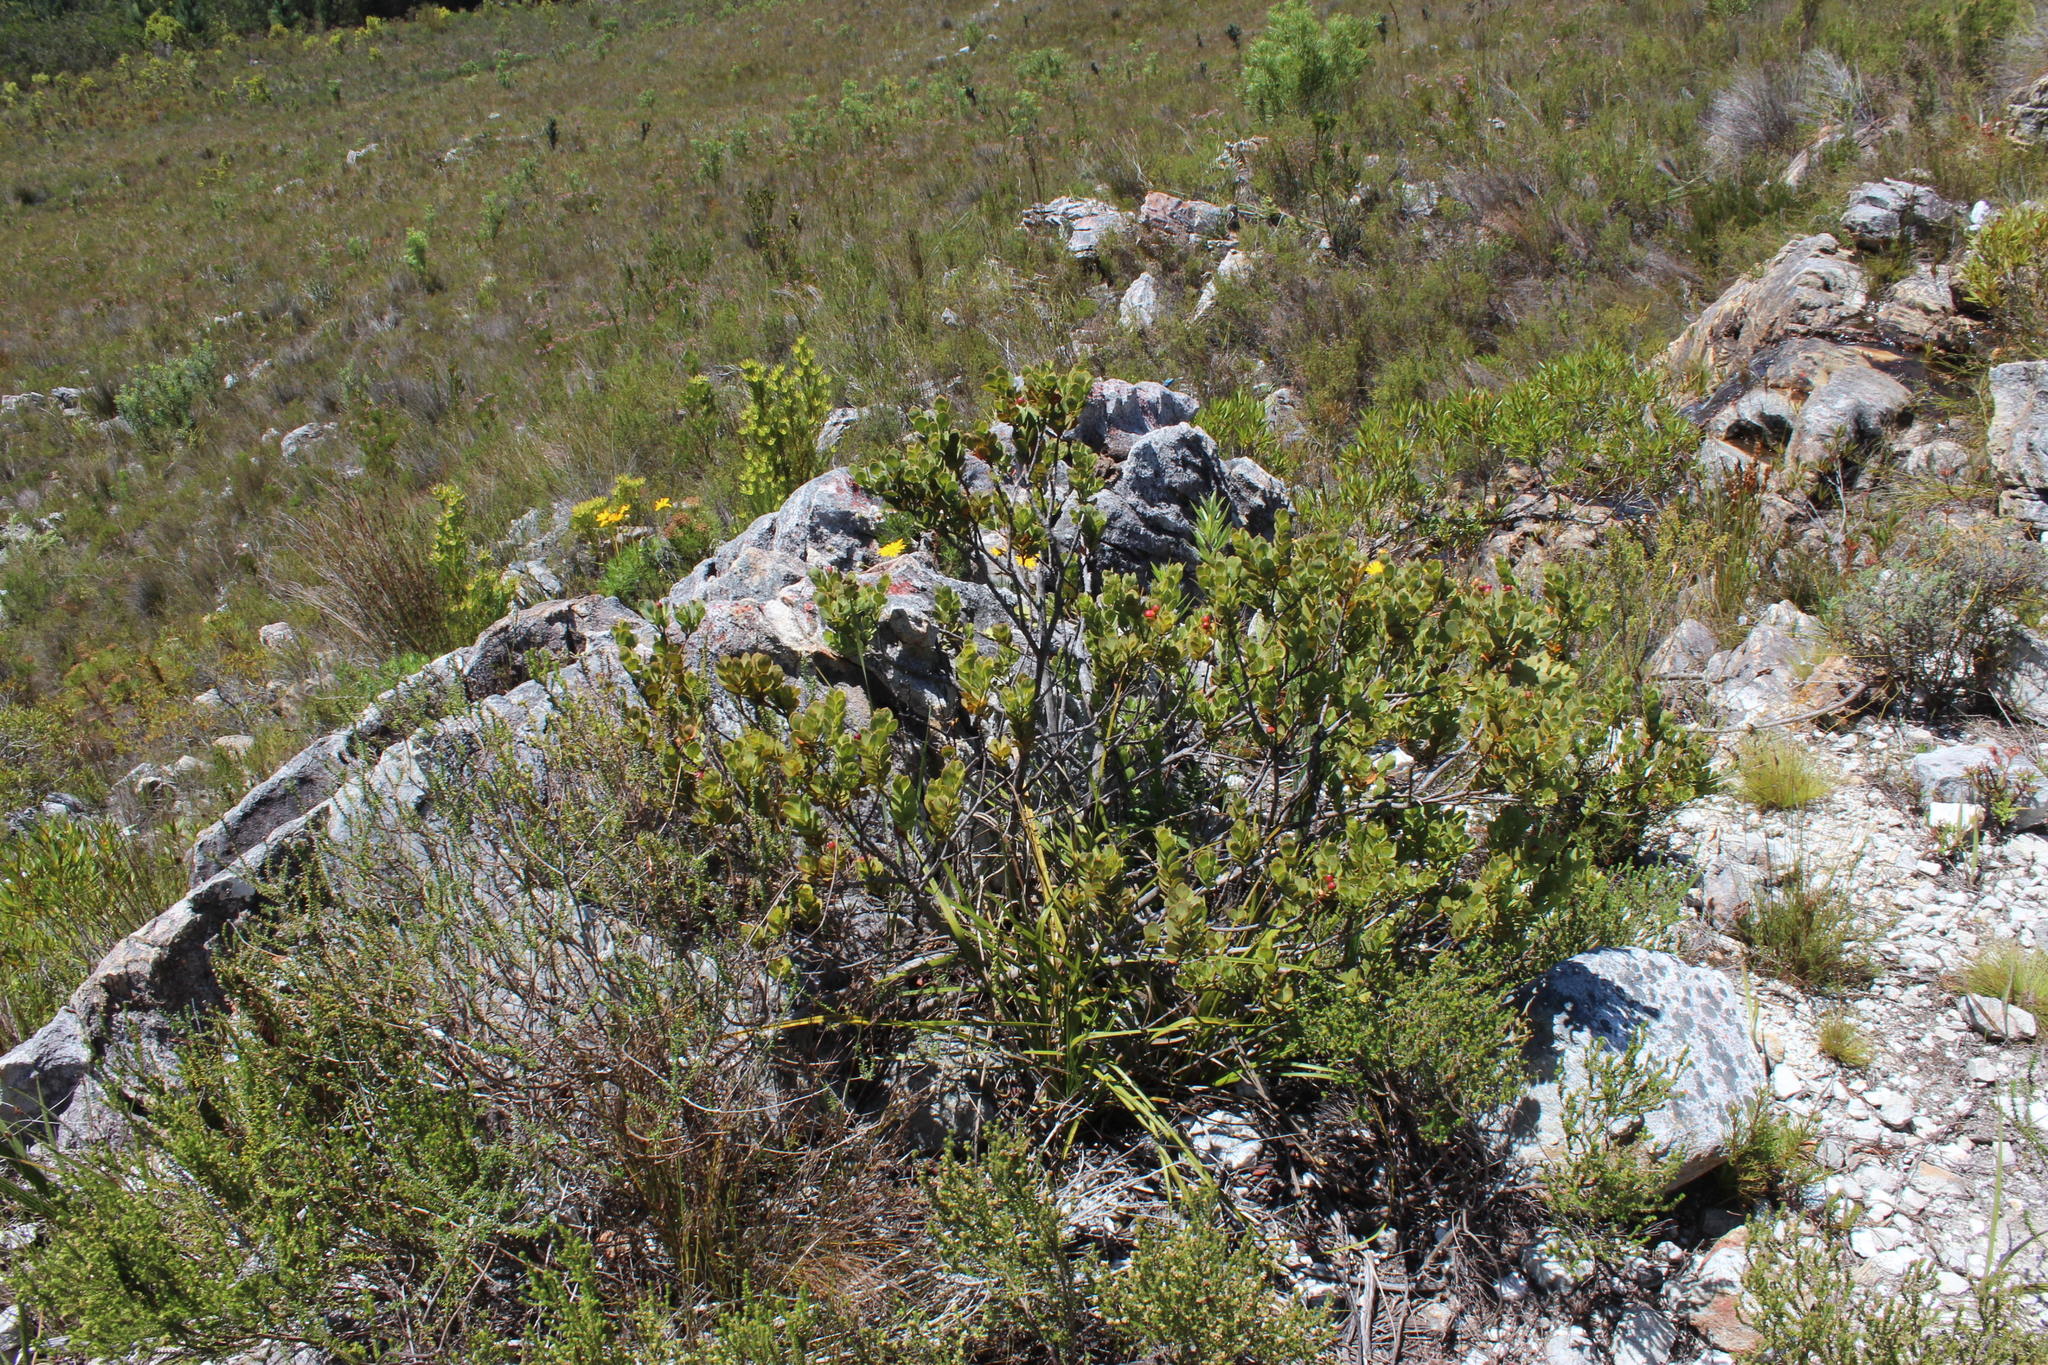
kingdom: Plantae
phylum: Tracheophyta
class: Magnoliopsida
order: Santalales
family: Santalaceae
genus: Osyris
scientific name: Osyris compressa
